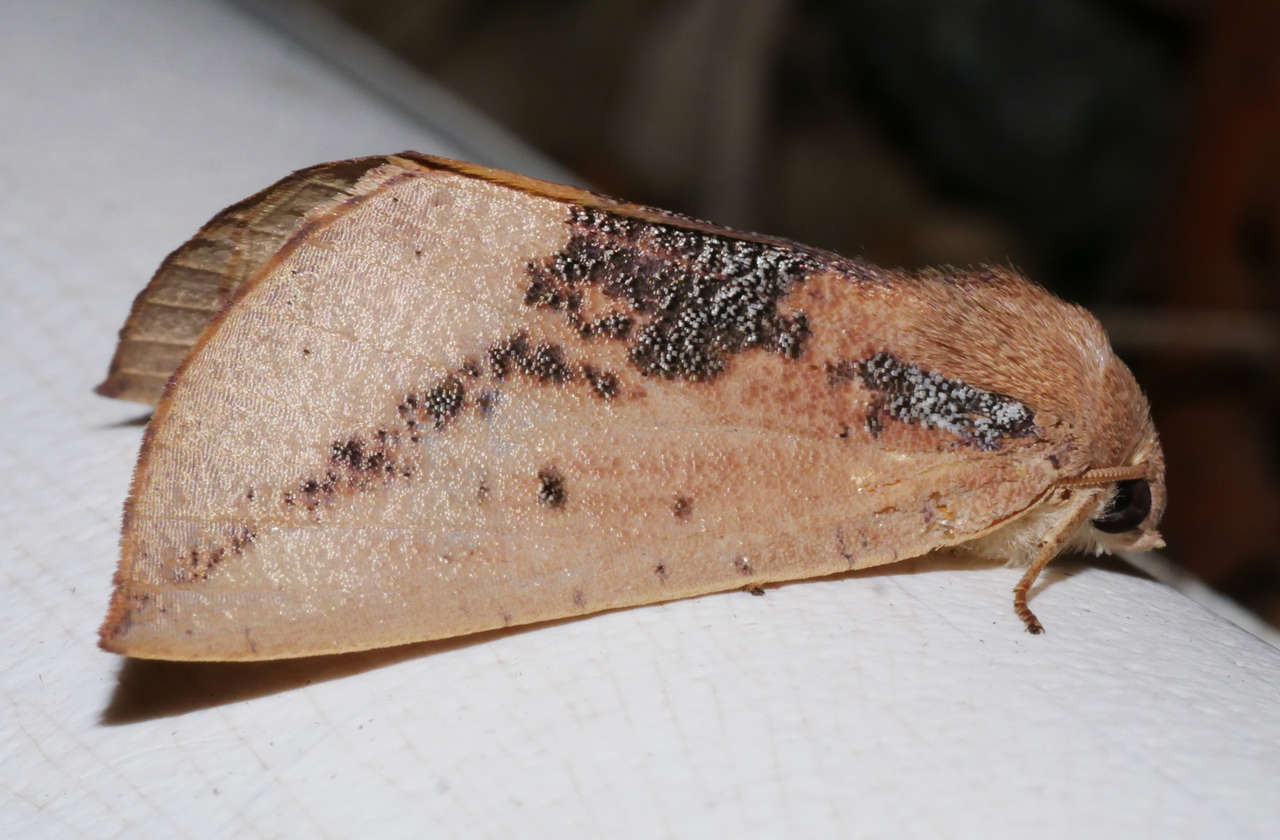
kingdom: Animalia
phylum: Arthropoda
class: Insecta
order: Lepidoptera
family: Geometridae
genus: Mnesampela
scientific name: Mnesampela heliochrysa
